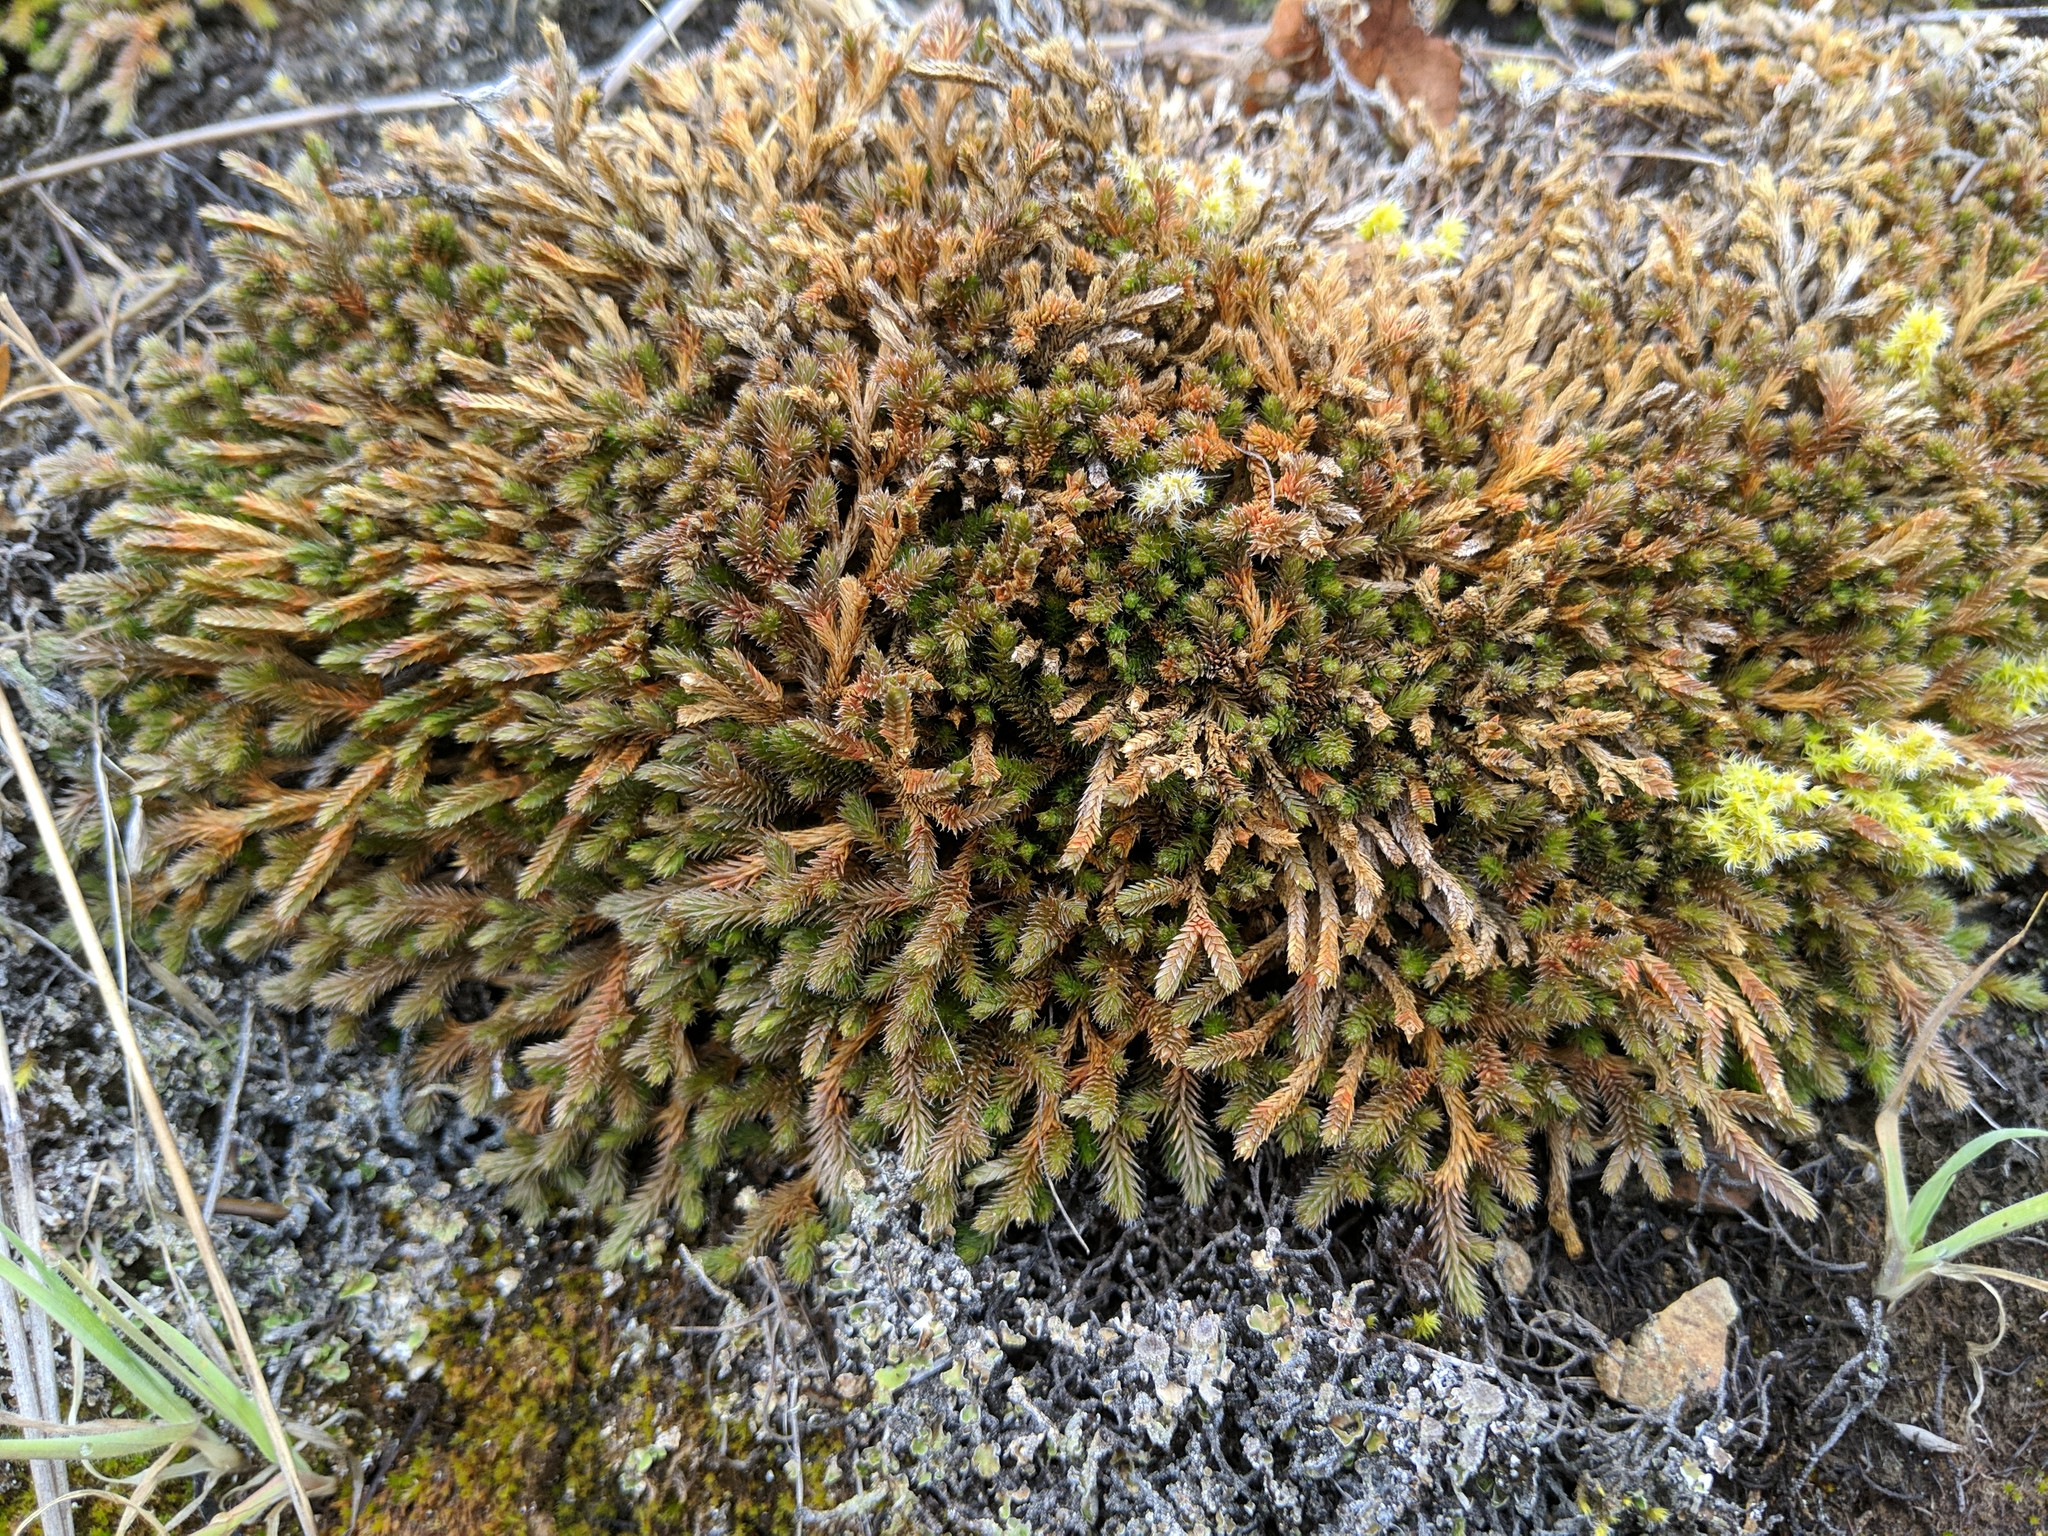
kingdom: Plantae
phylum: Tracheophyta
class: Lycopodiopsida
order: Selaginellales
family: Selaginellaceae
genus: Selaginella
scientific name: Selaginella wallacei
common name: Wallace's selaginella
